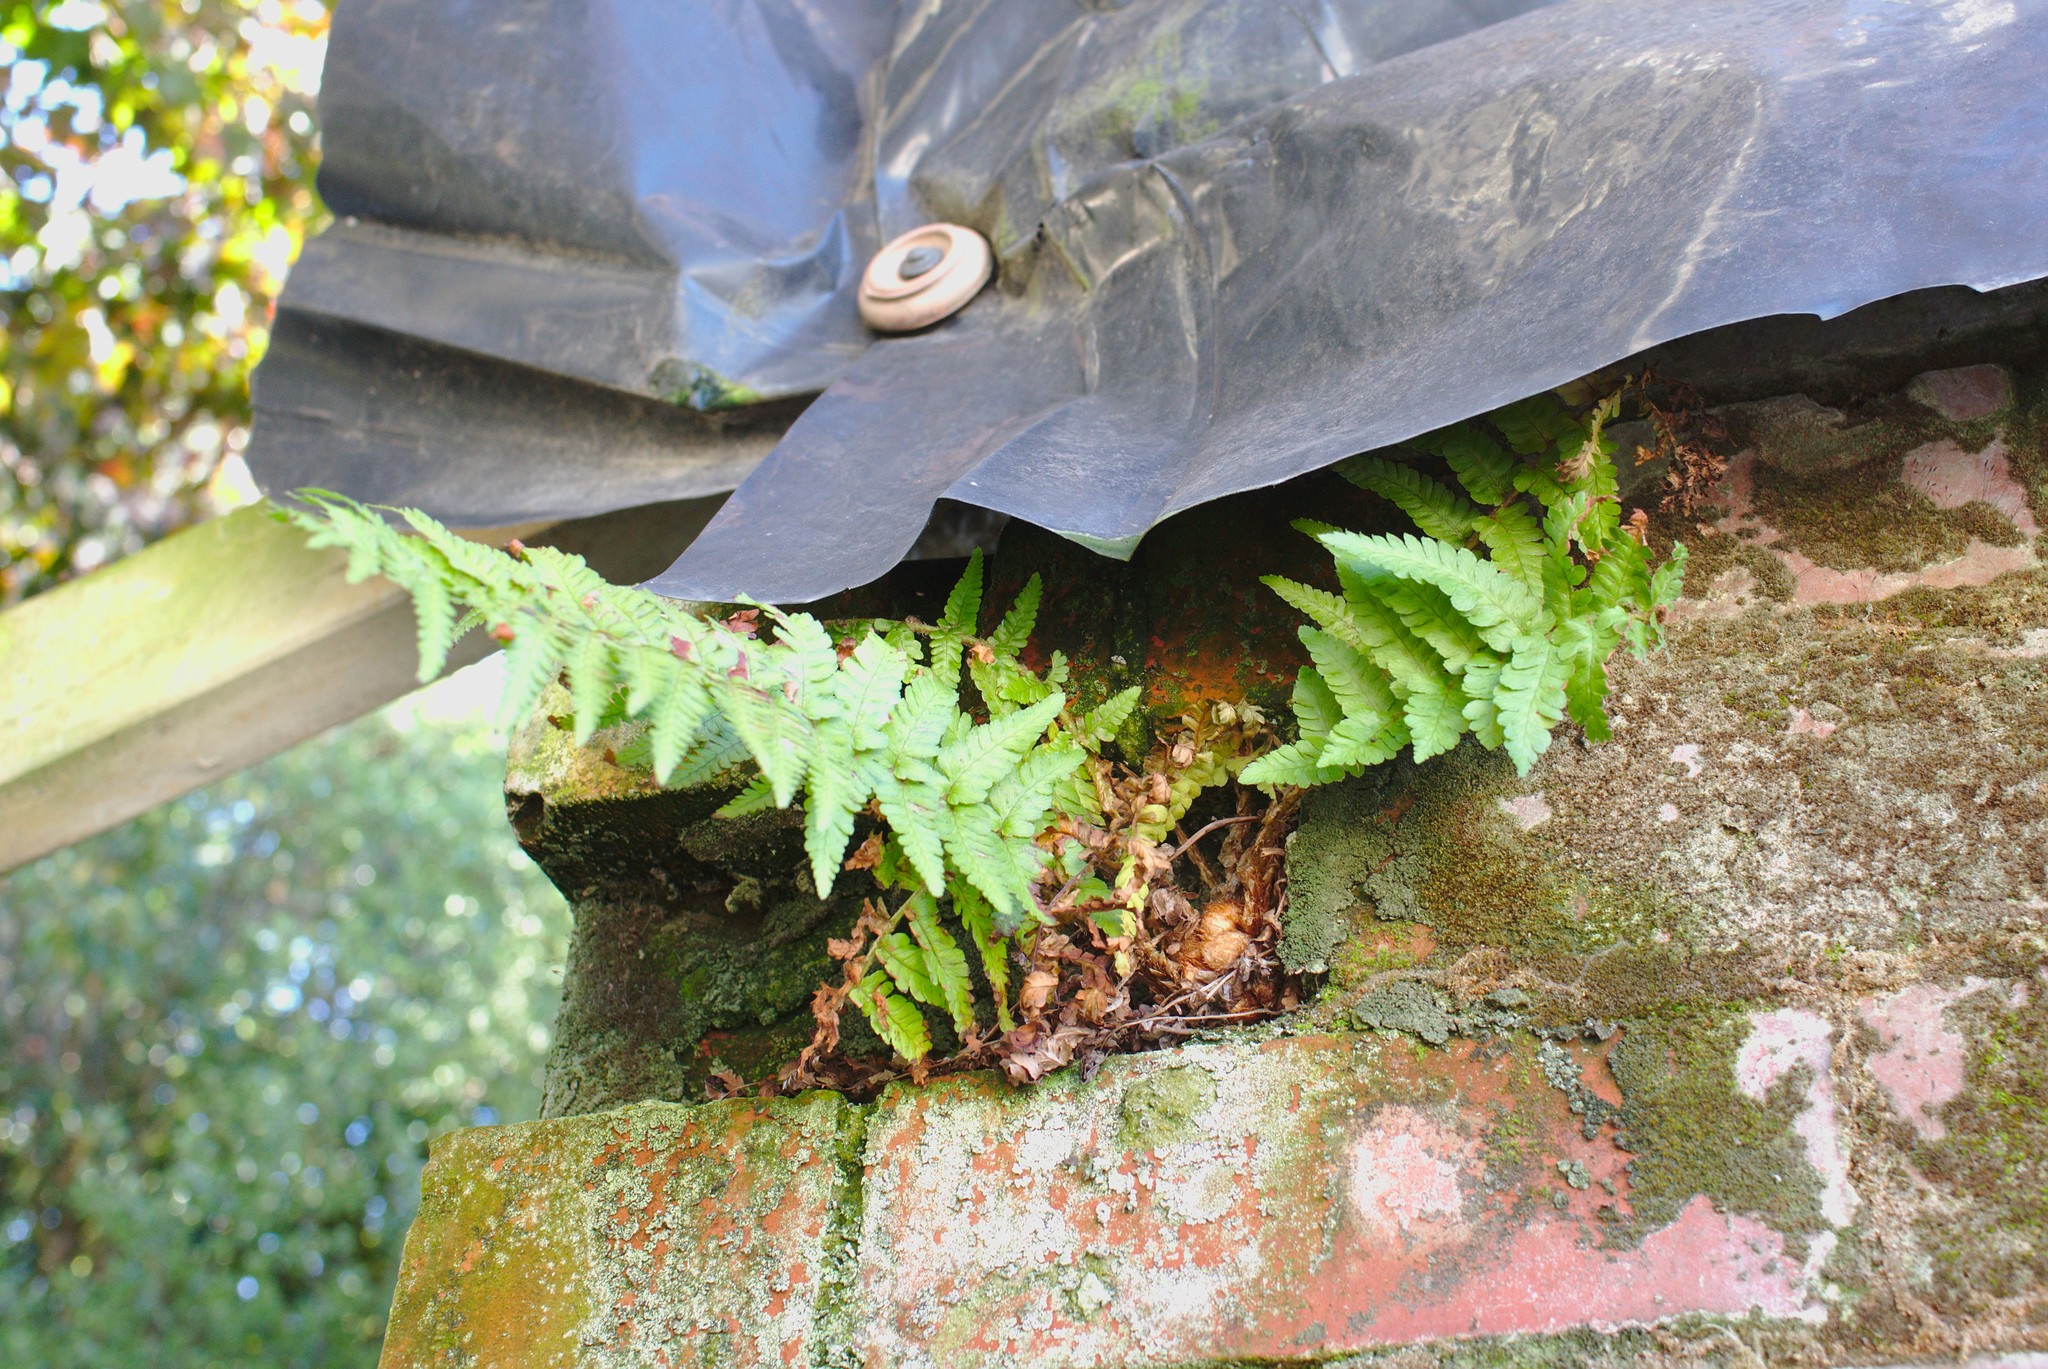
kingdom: Plantae
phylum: Tracheophyta
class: Polypodiopsida
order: Polypodiales
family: Dryopteridaceae
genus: Dryopteris
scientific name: Dryopteris filix-mas
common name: Male fern
